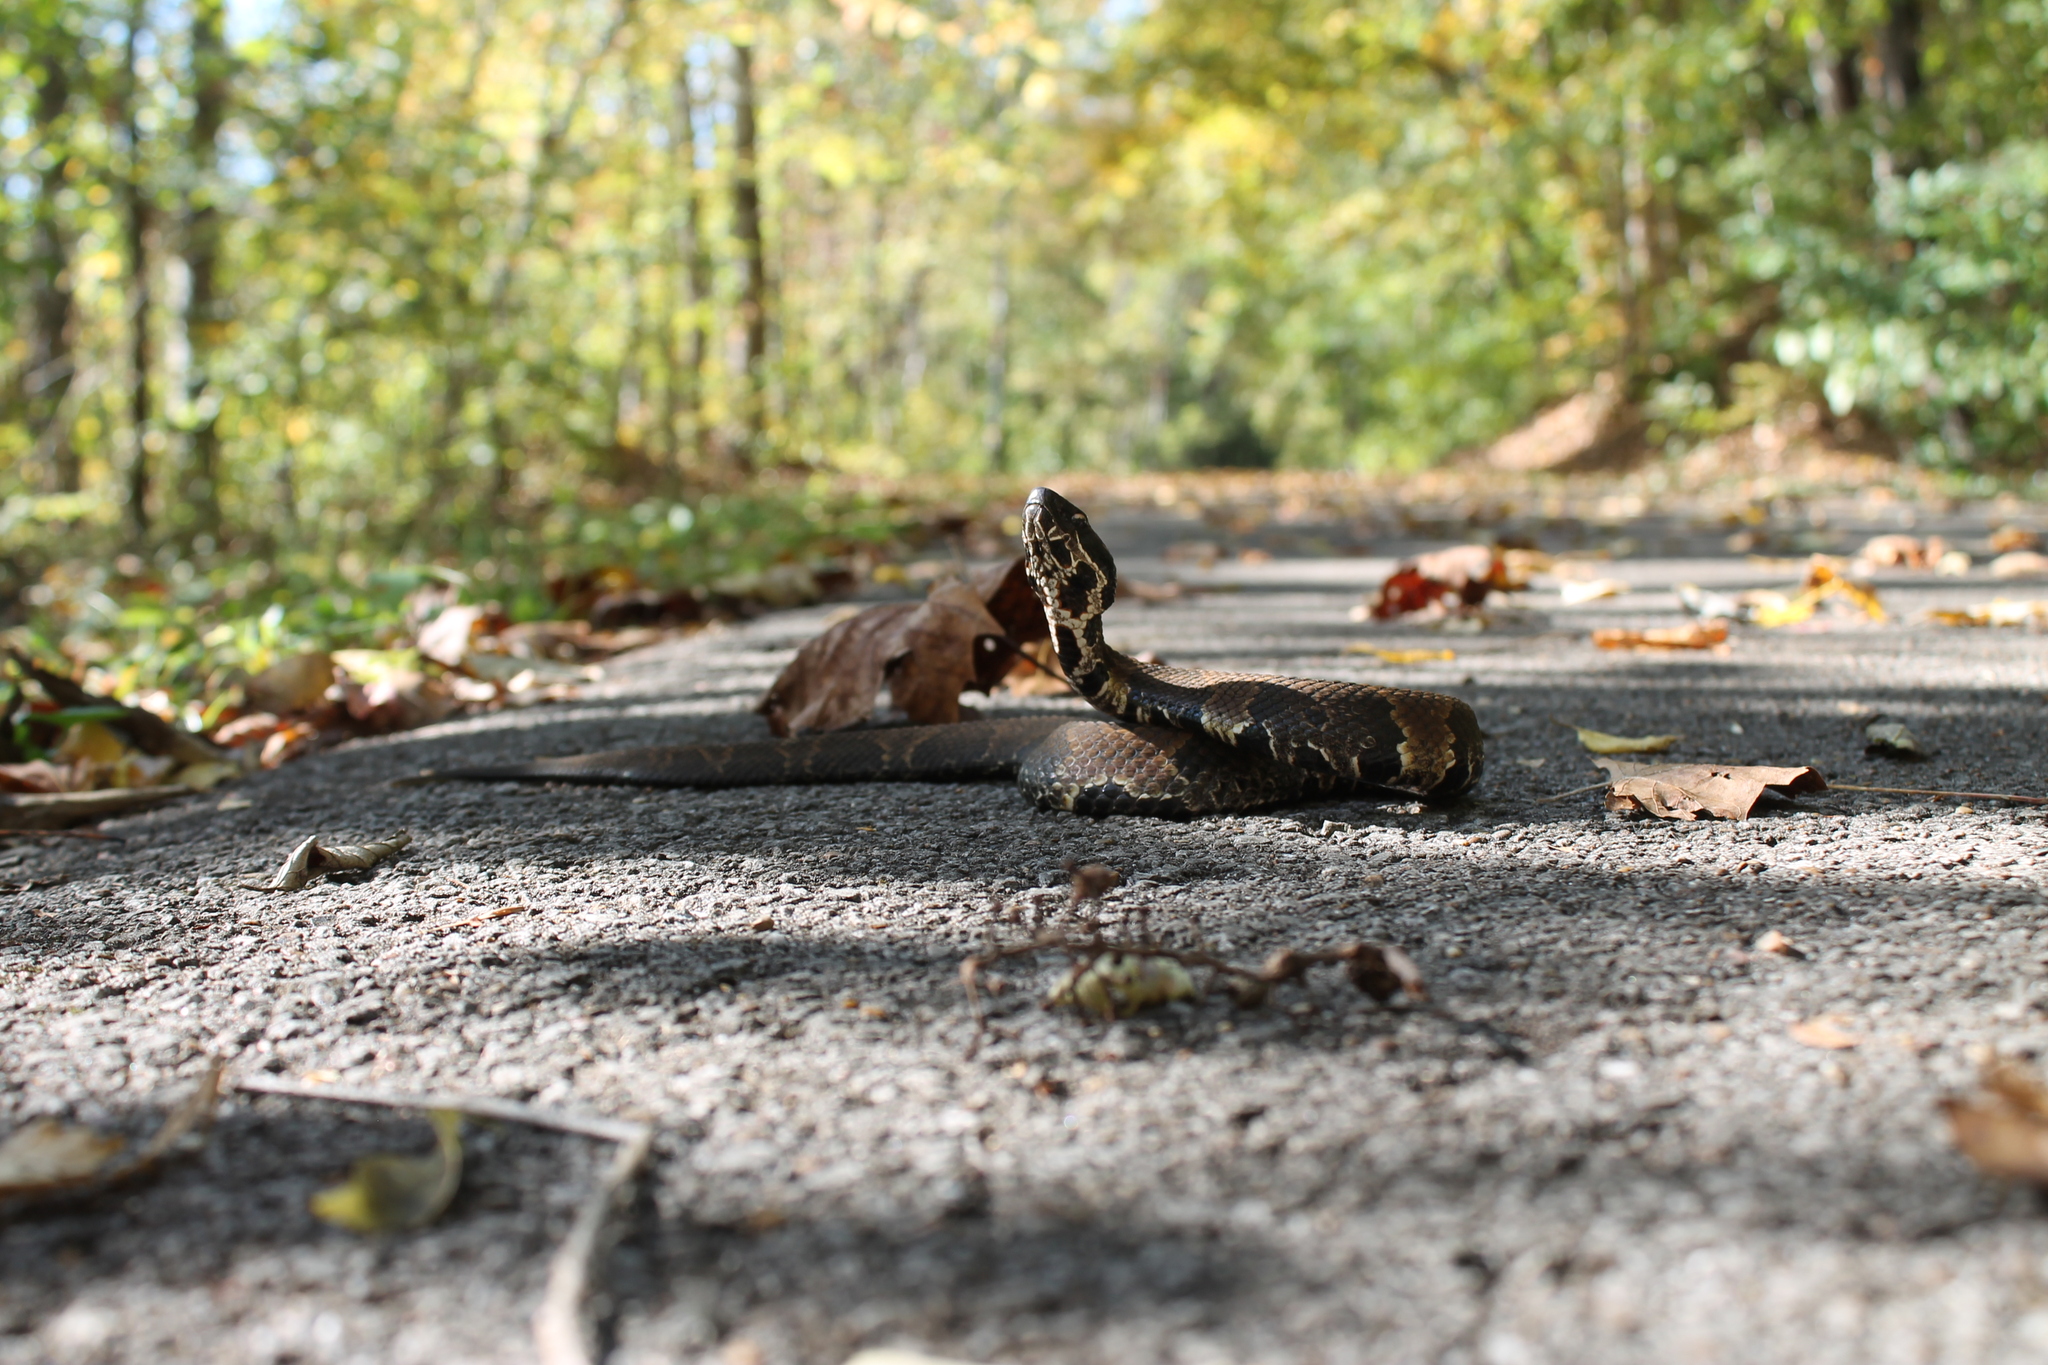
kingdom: Animalia
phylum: Chordata
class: Squamata
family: Viperidae
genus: Agkistrodon
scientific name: Agkistrodon piscivorus
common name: Cottonmouth
